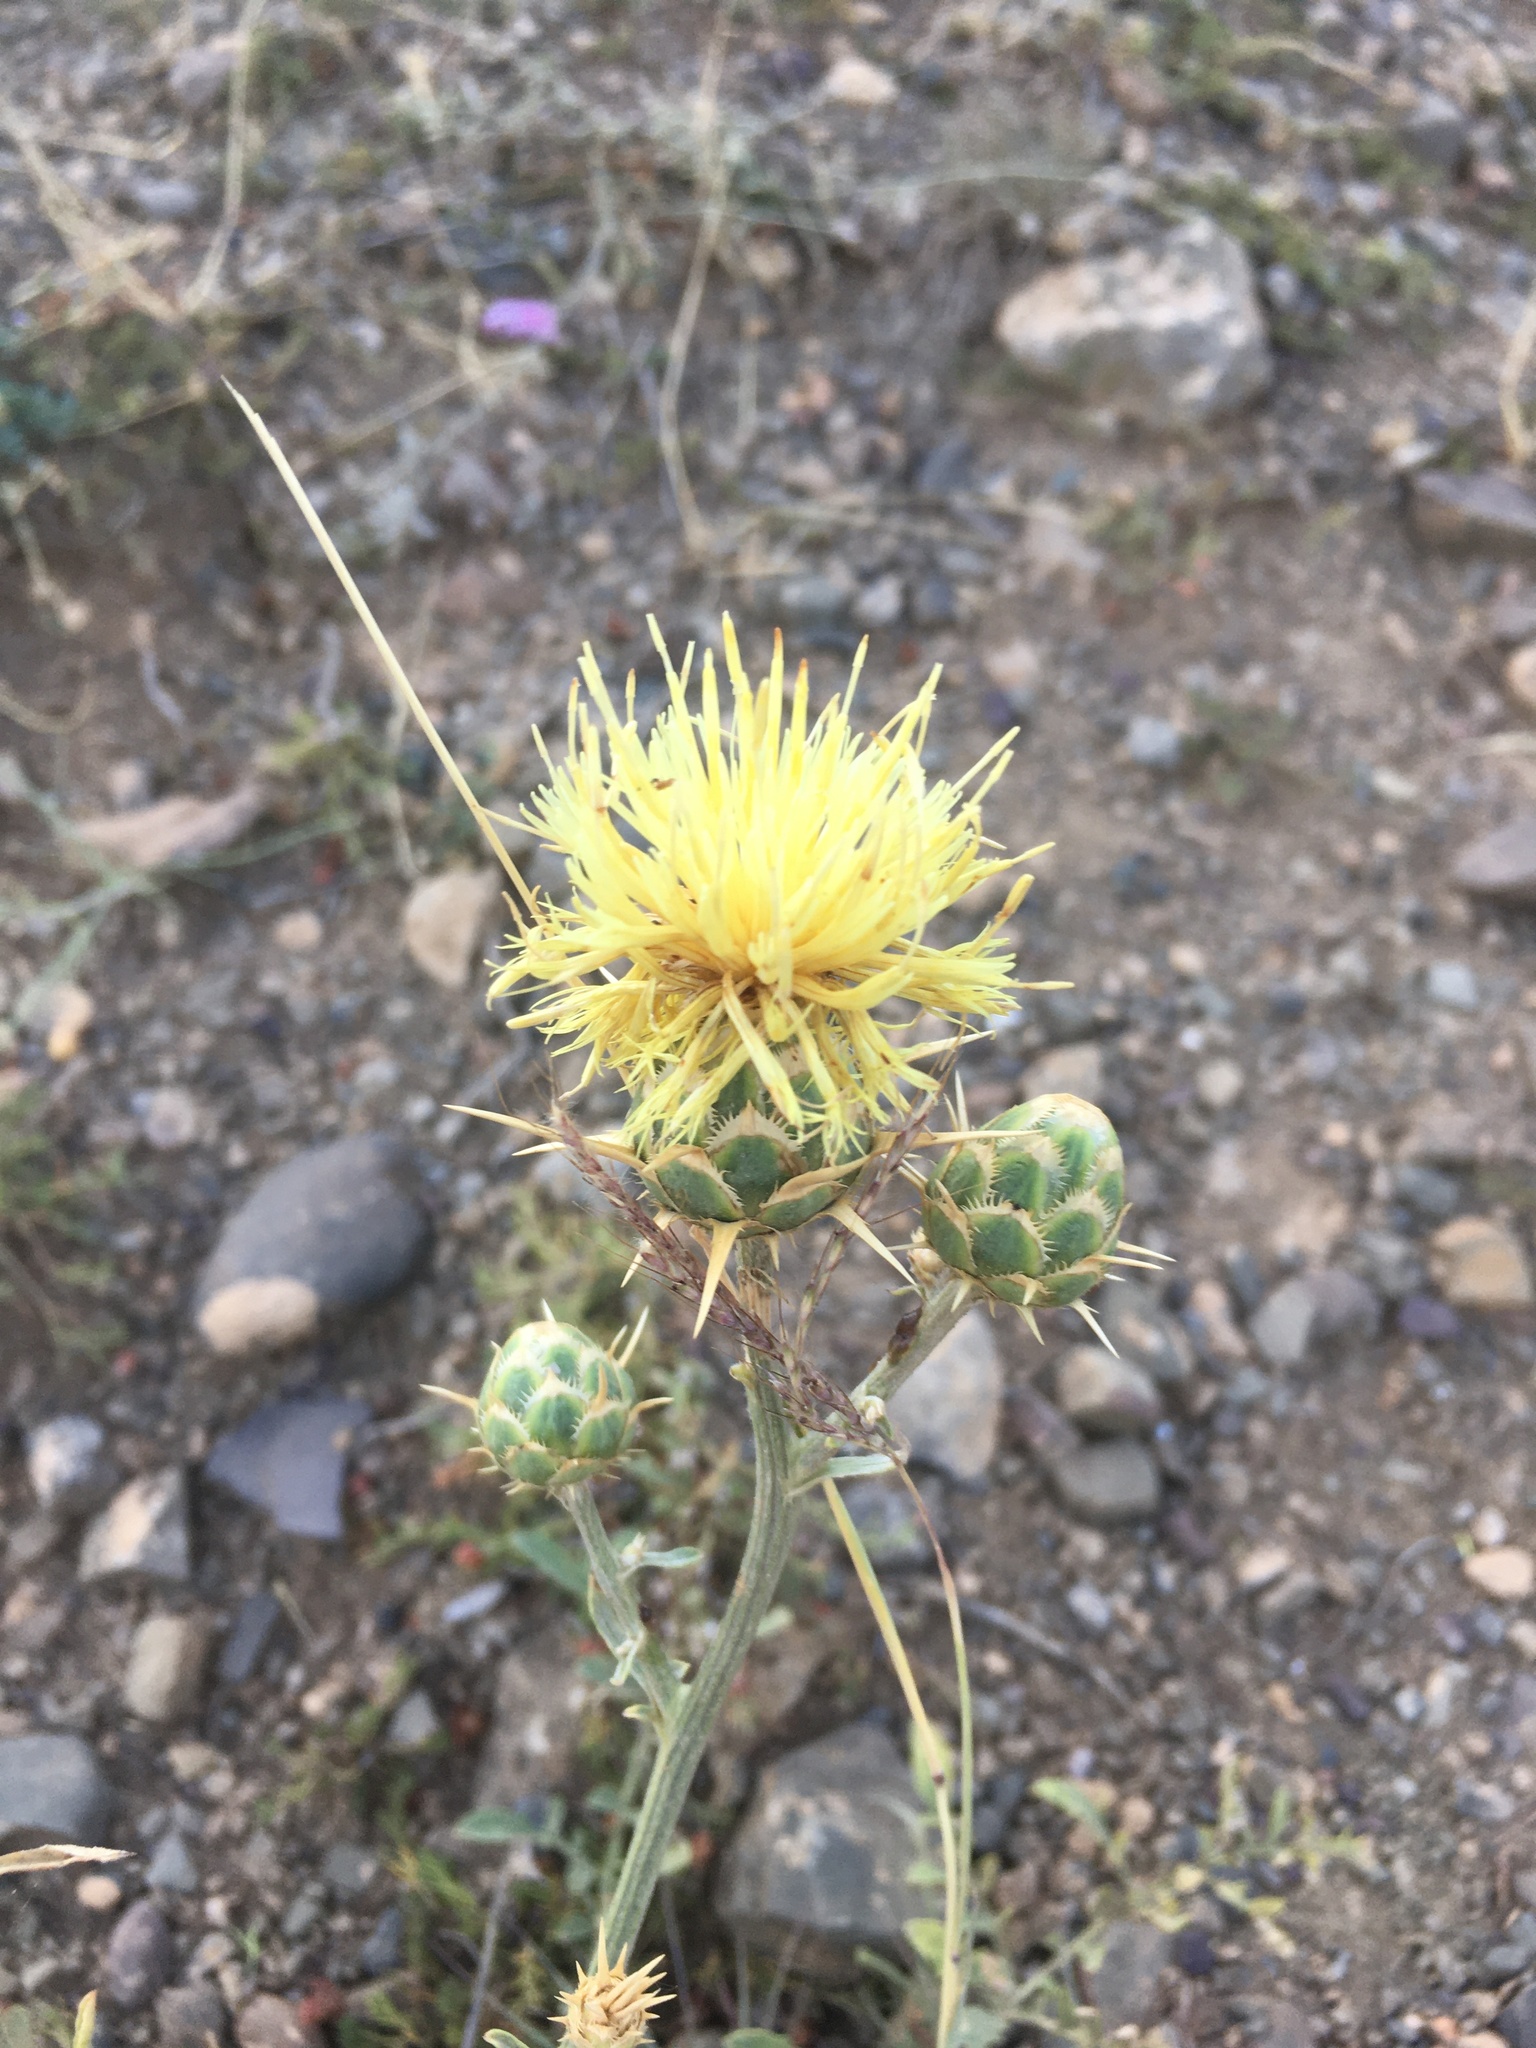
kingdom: Plantae
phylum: Tracheophyta
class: Magnoliopsida
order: Asterales
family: Asteraceae
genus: Centaurea
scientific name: Centaurea salonitana
